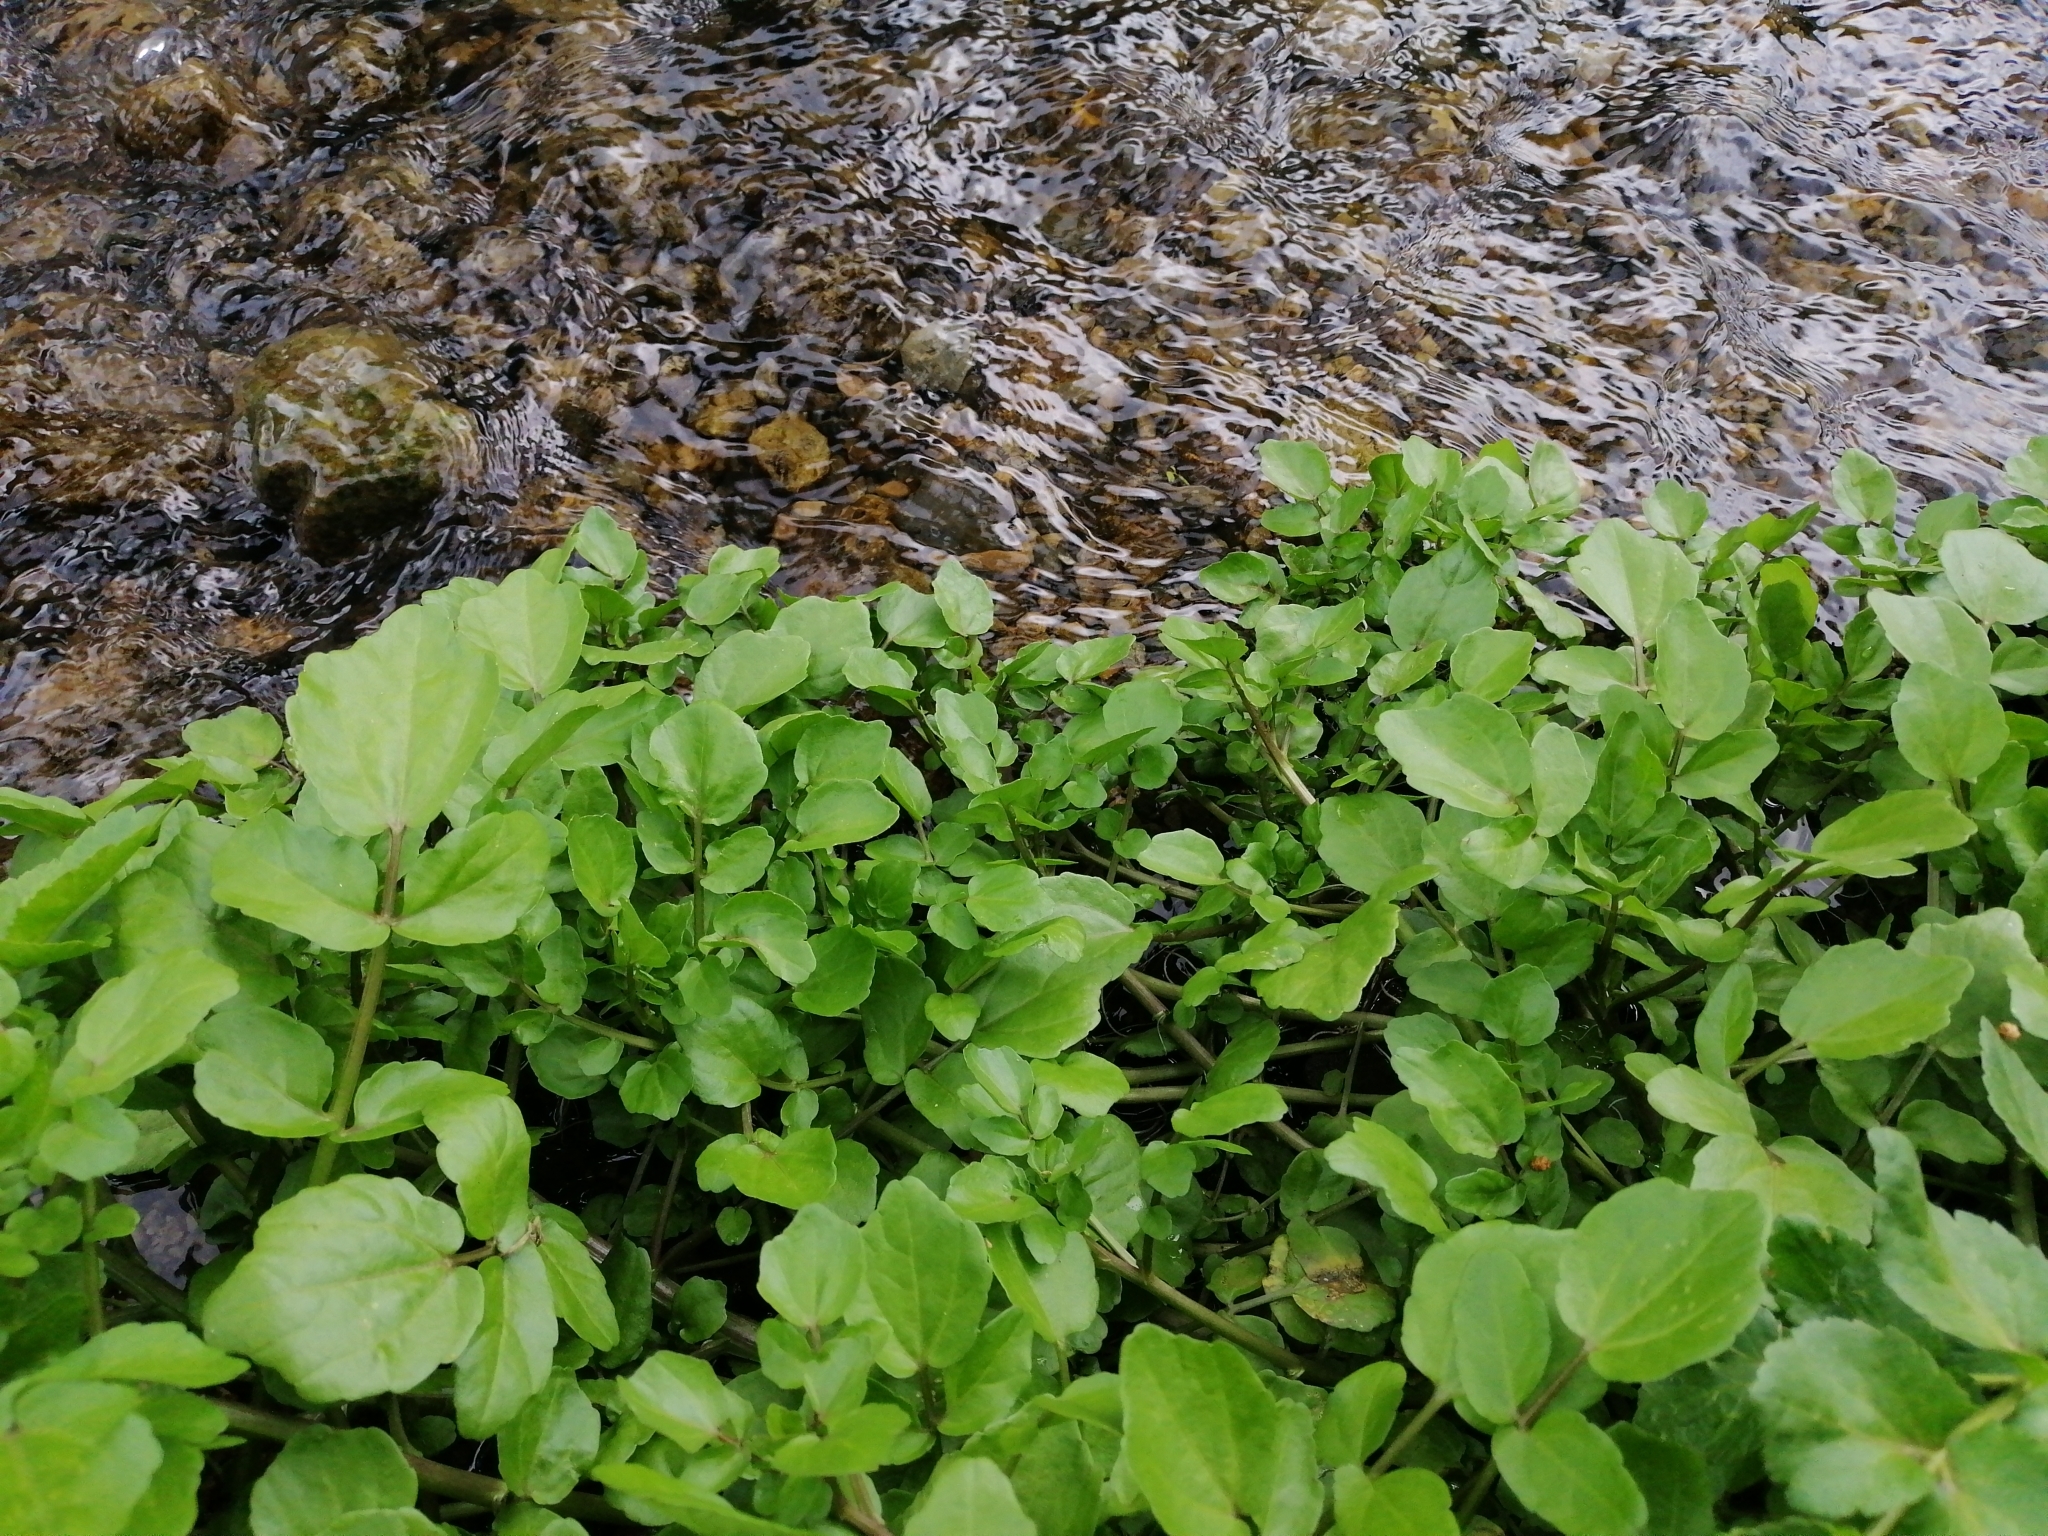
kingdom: Plantae
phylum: Tracheophyta
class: Magnoliopsida
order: Brassicales
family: Brassicaceae
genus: Nasturtium
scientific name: Nasturtium officinale
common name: Watercress
